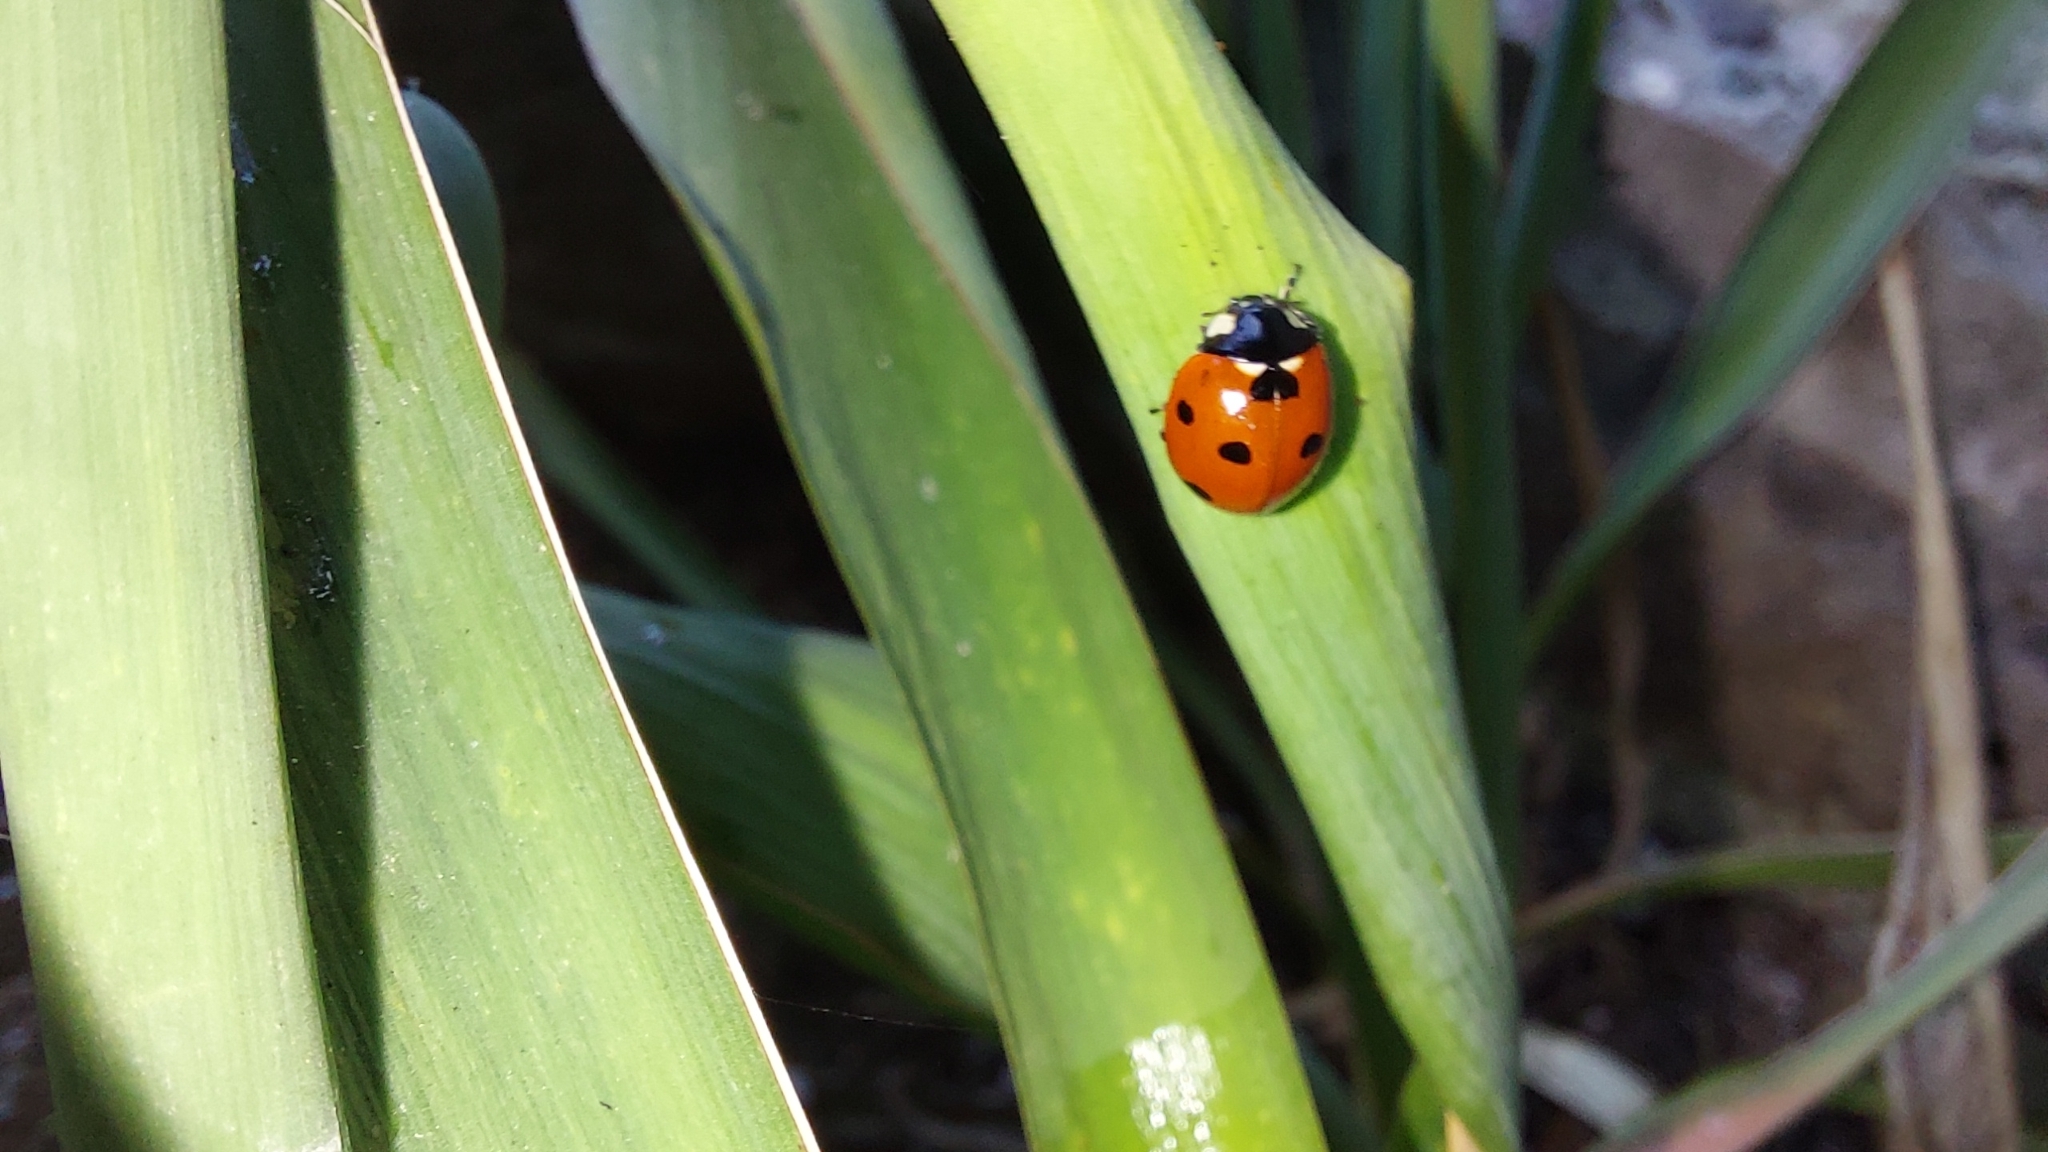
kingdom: Animalia
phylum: Arthropoda
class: Insecta
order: Coleoptera
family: Coccinellidae
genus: Coccinella
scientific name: Coccinella septempunctata
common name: Sevenspotted lady beetle
